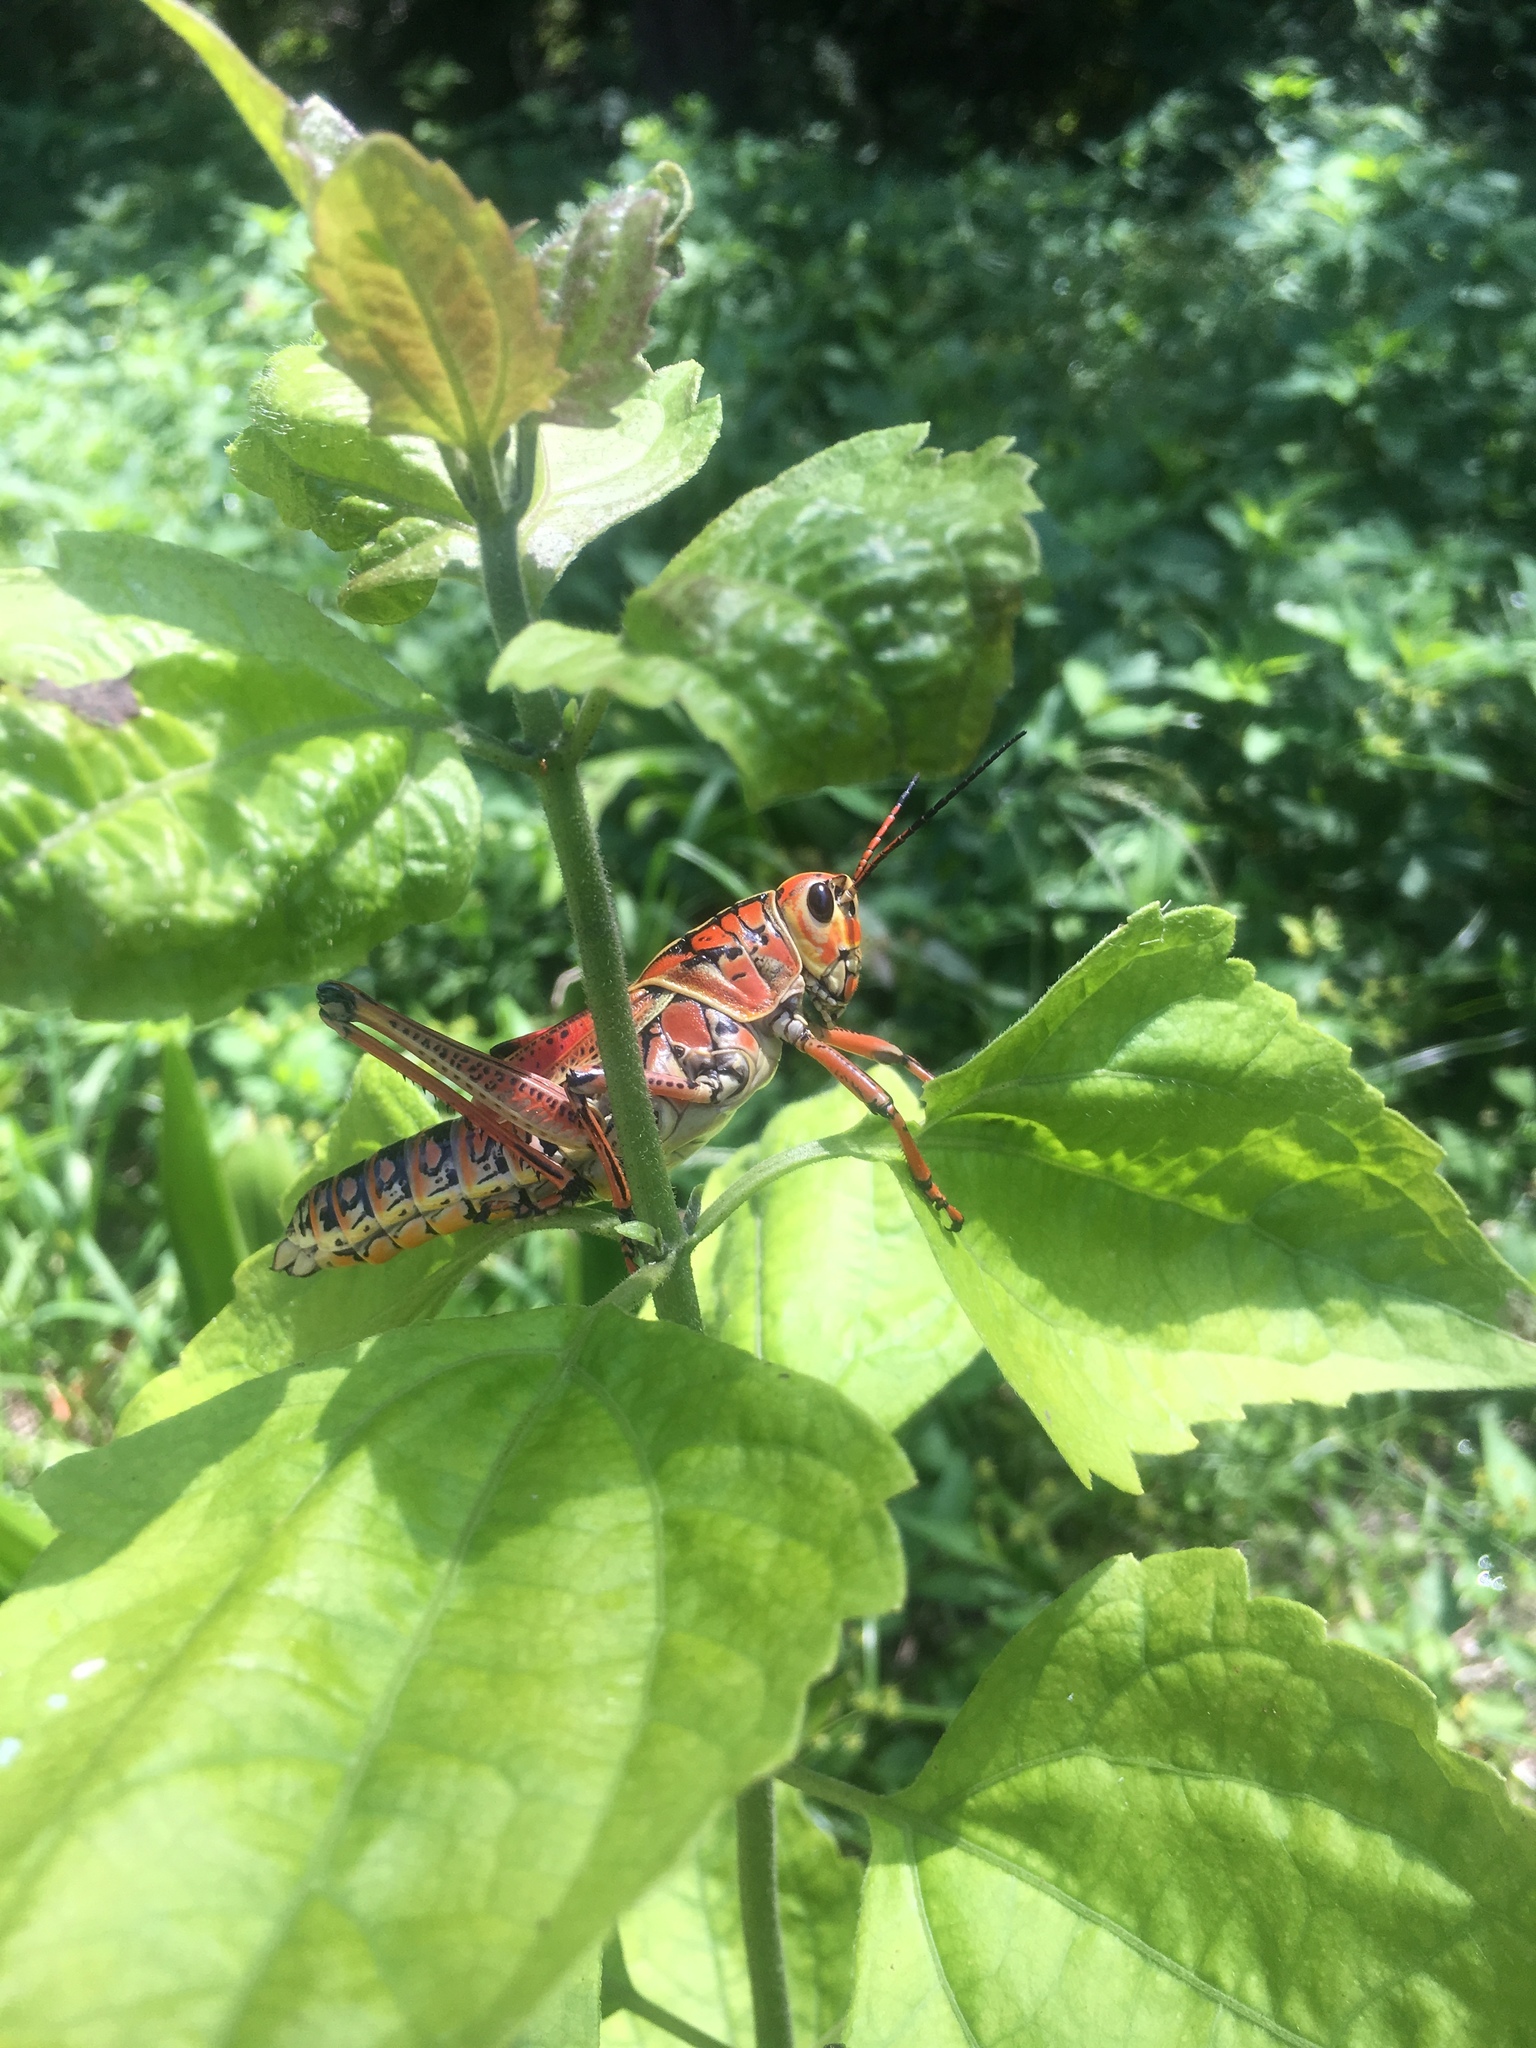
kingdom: Animalia
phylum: Arthropoda
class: Insecta
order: Orthoptera
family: Romaleidae
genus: Romalea
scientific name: Romalea microptera
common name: Eastern lubber grasshopper
